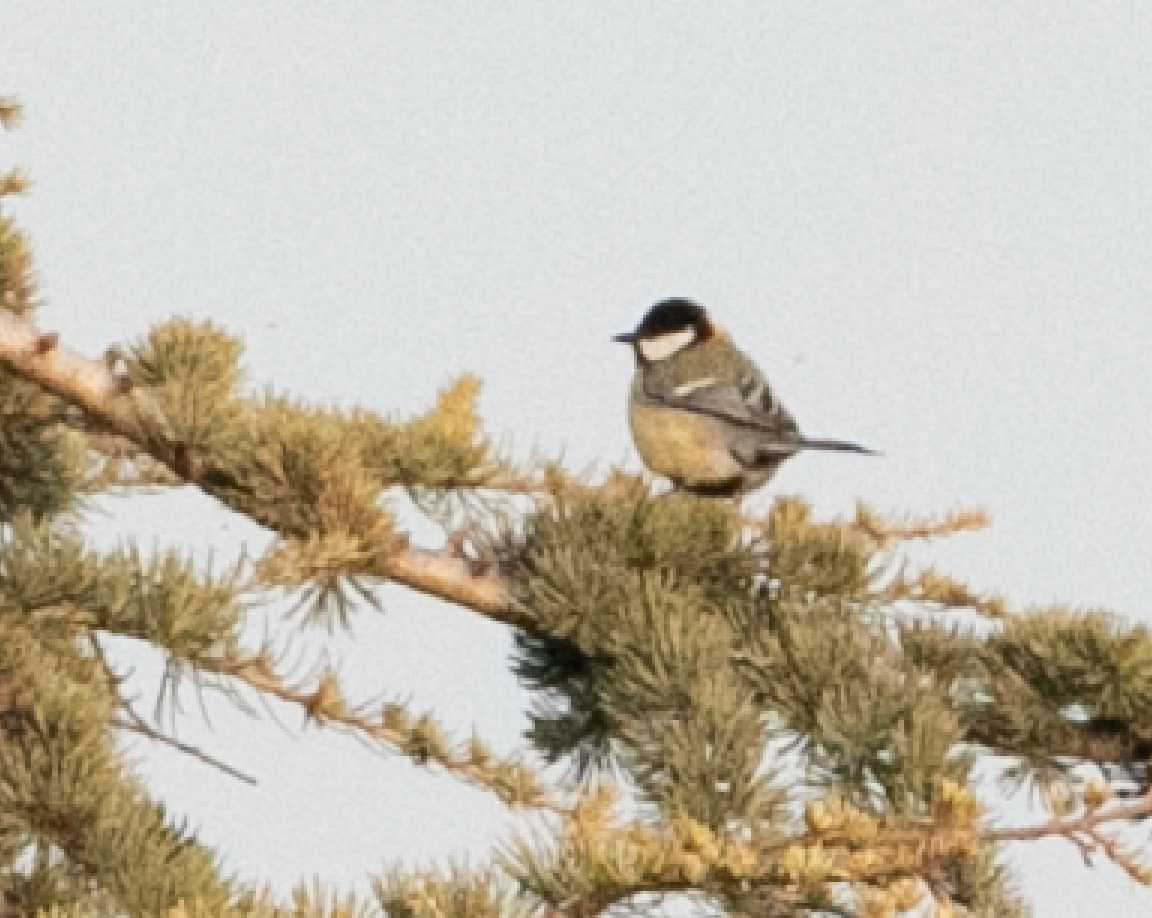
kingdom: Animalia
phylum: Chordata
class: Aves
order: Passeriformes
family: Paridae
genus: Parus
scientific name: Parus major
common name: Great tit
